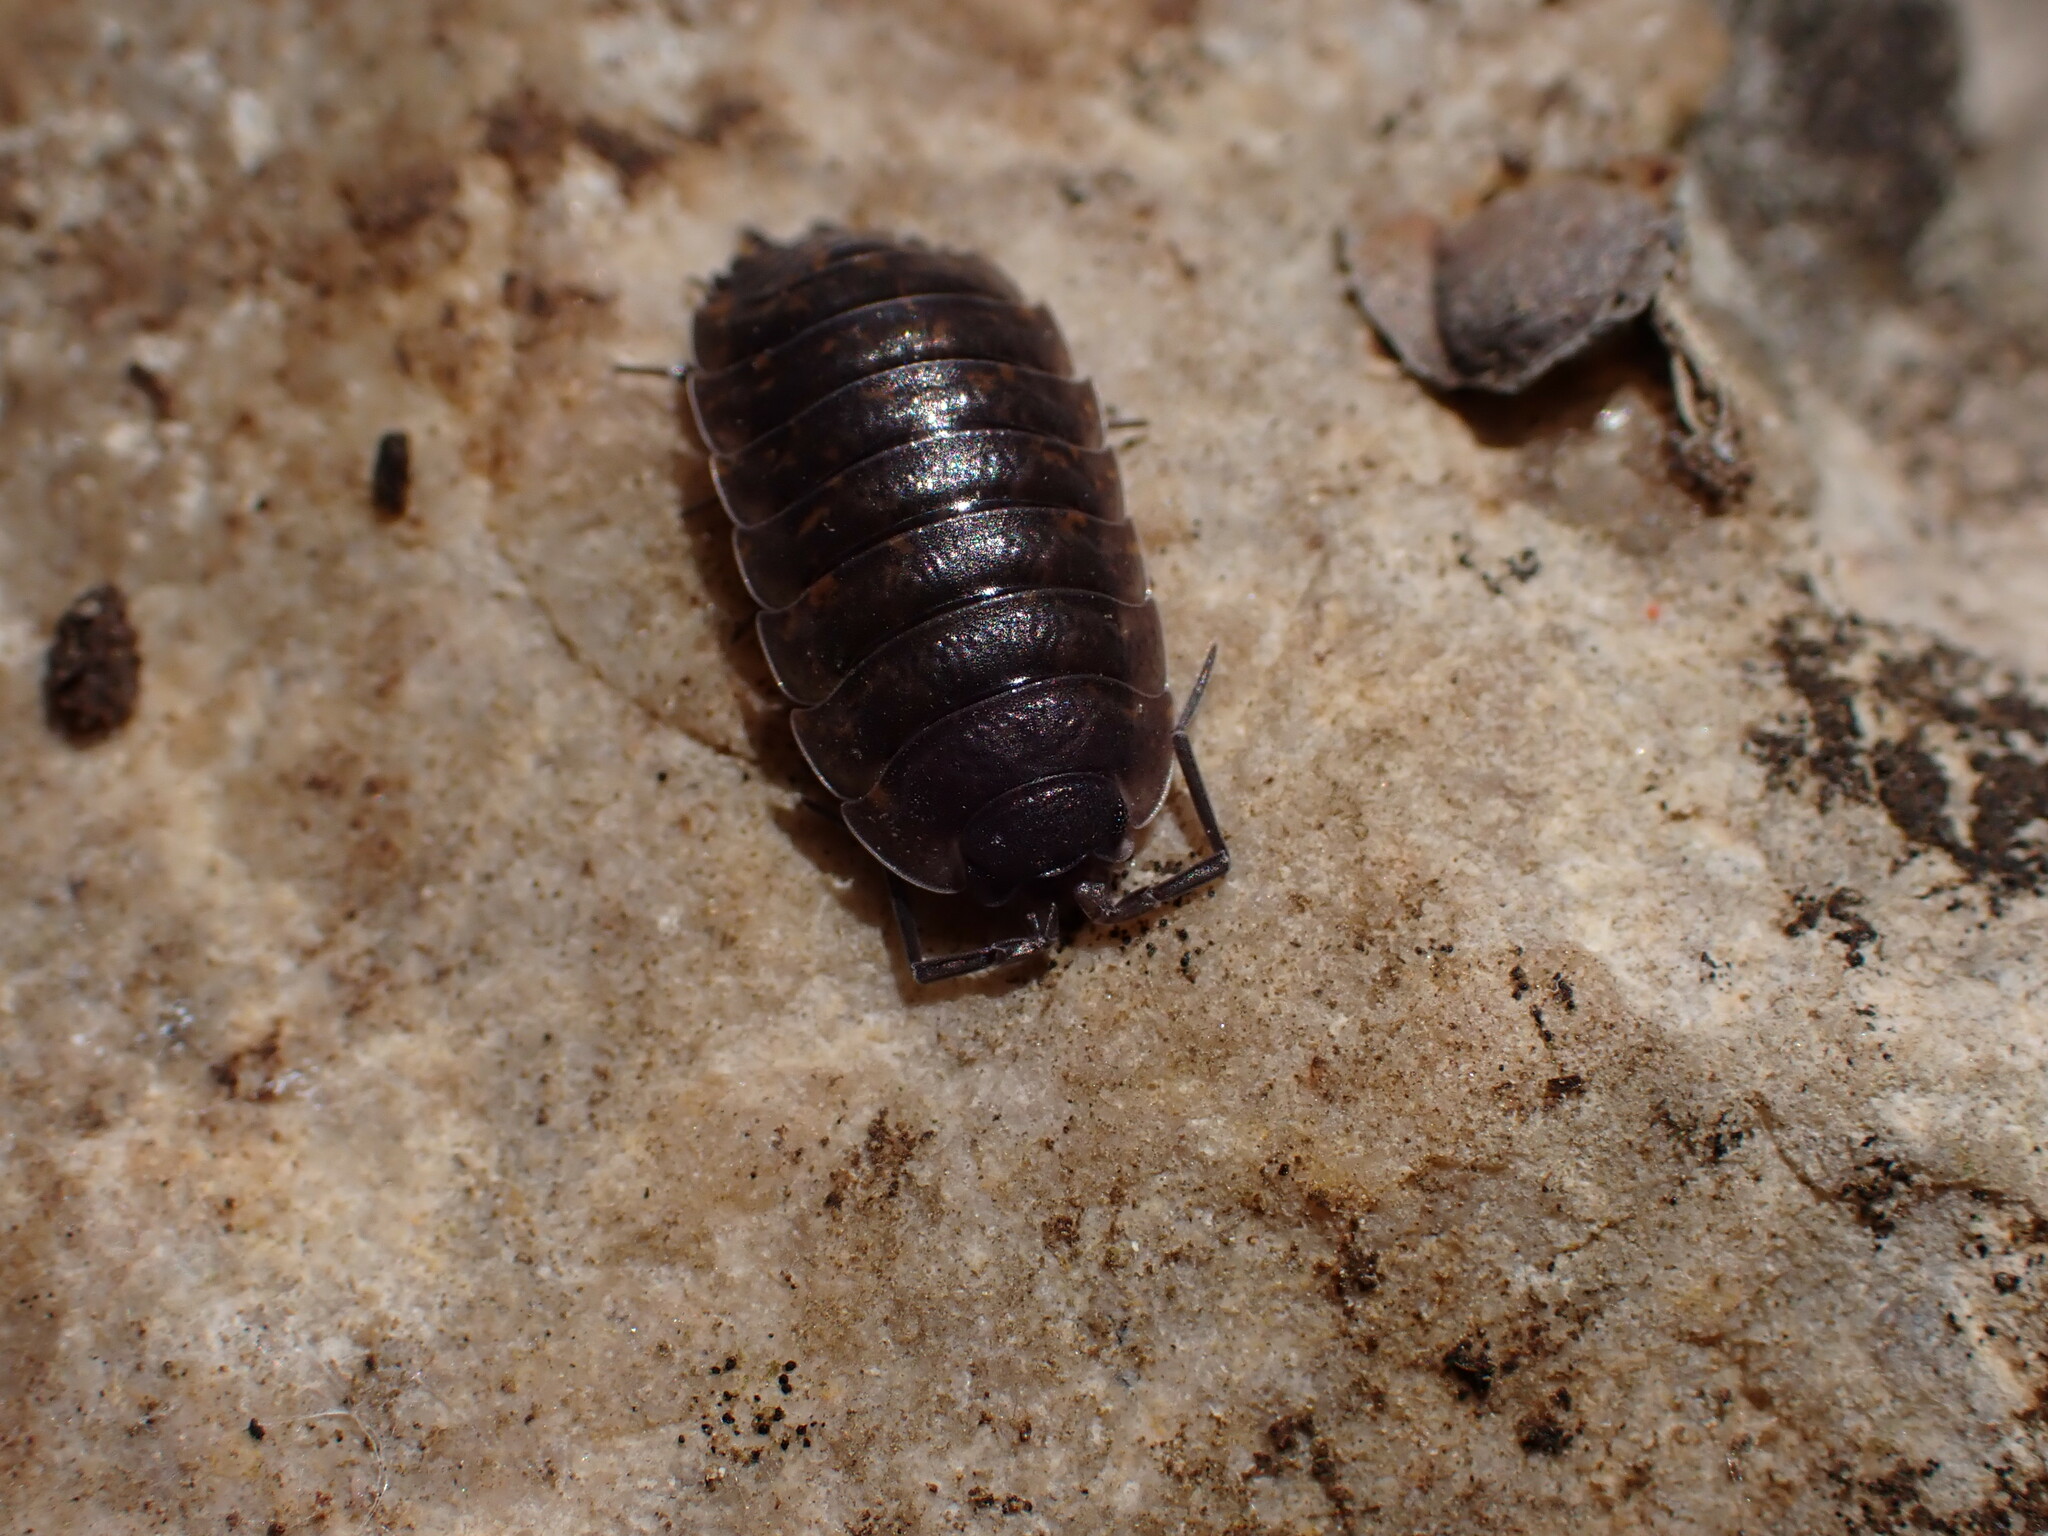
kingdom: Animalia
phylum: Arthropoda
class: Malacostraca
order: Isopoda
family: Porcellionidae
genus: Porcellio
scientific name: Porcellio orarum
